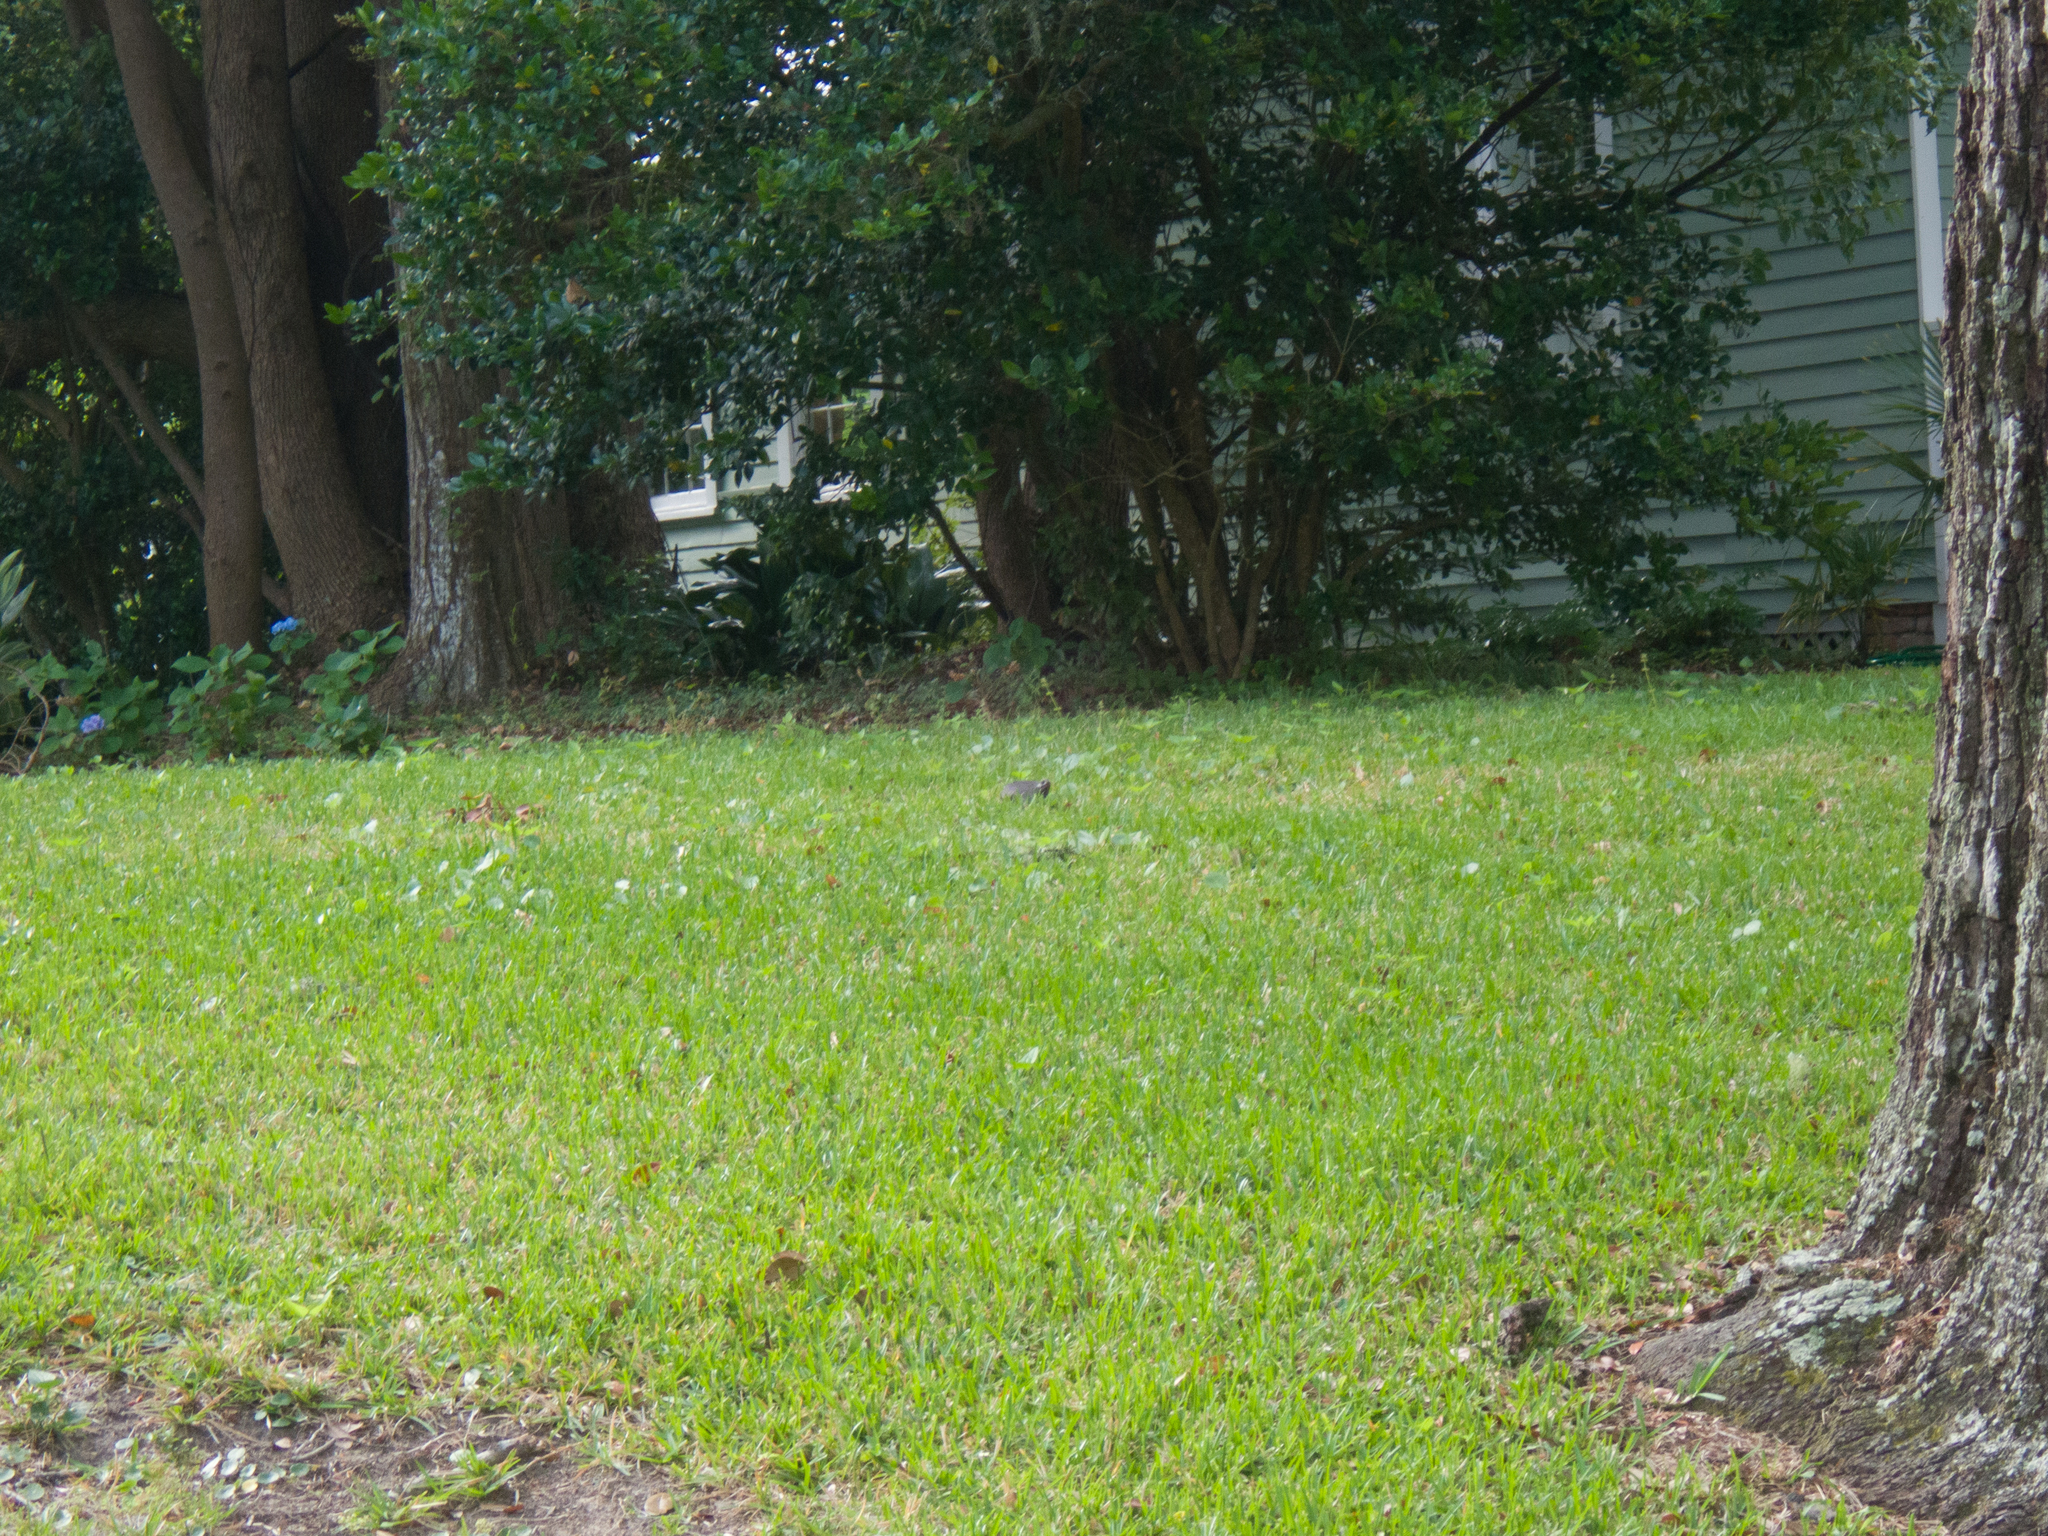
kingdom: Animalia
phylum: Chordata
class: Testudines
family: Emydidae
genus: Terrapene
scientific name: Terrapene carolina
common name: Common box turtle
